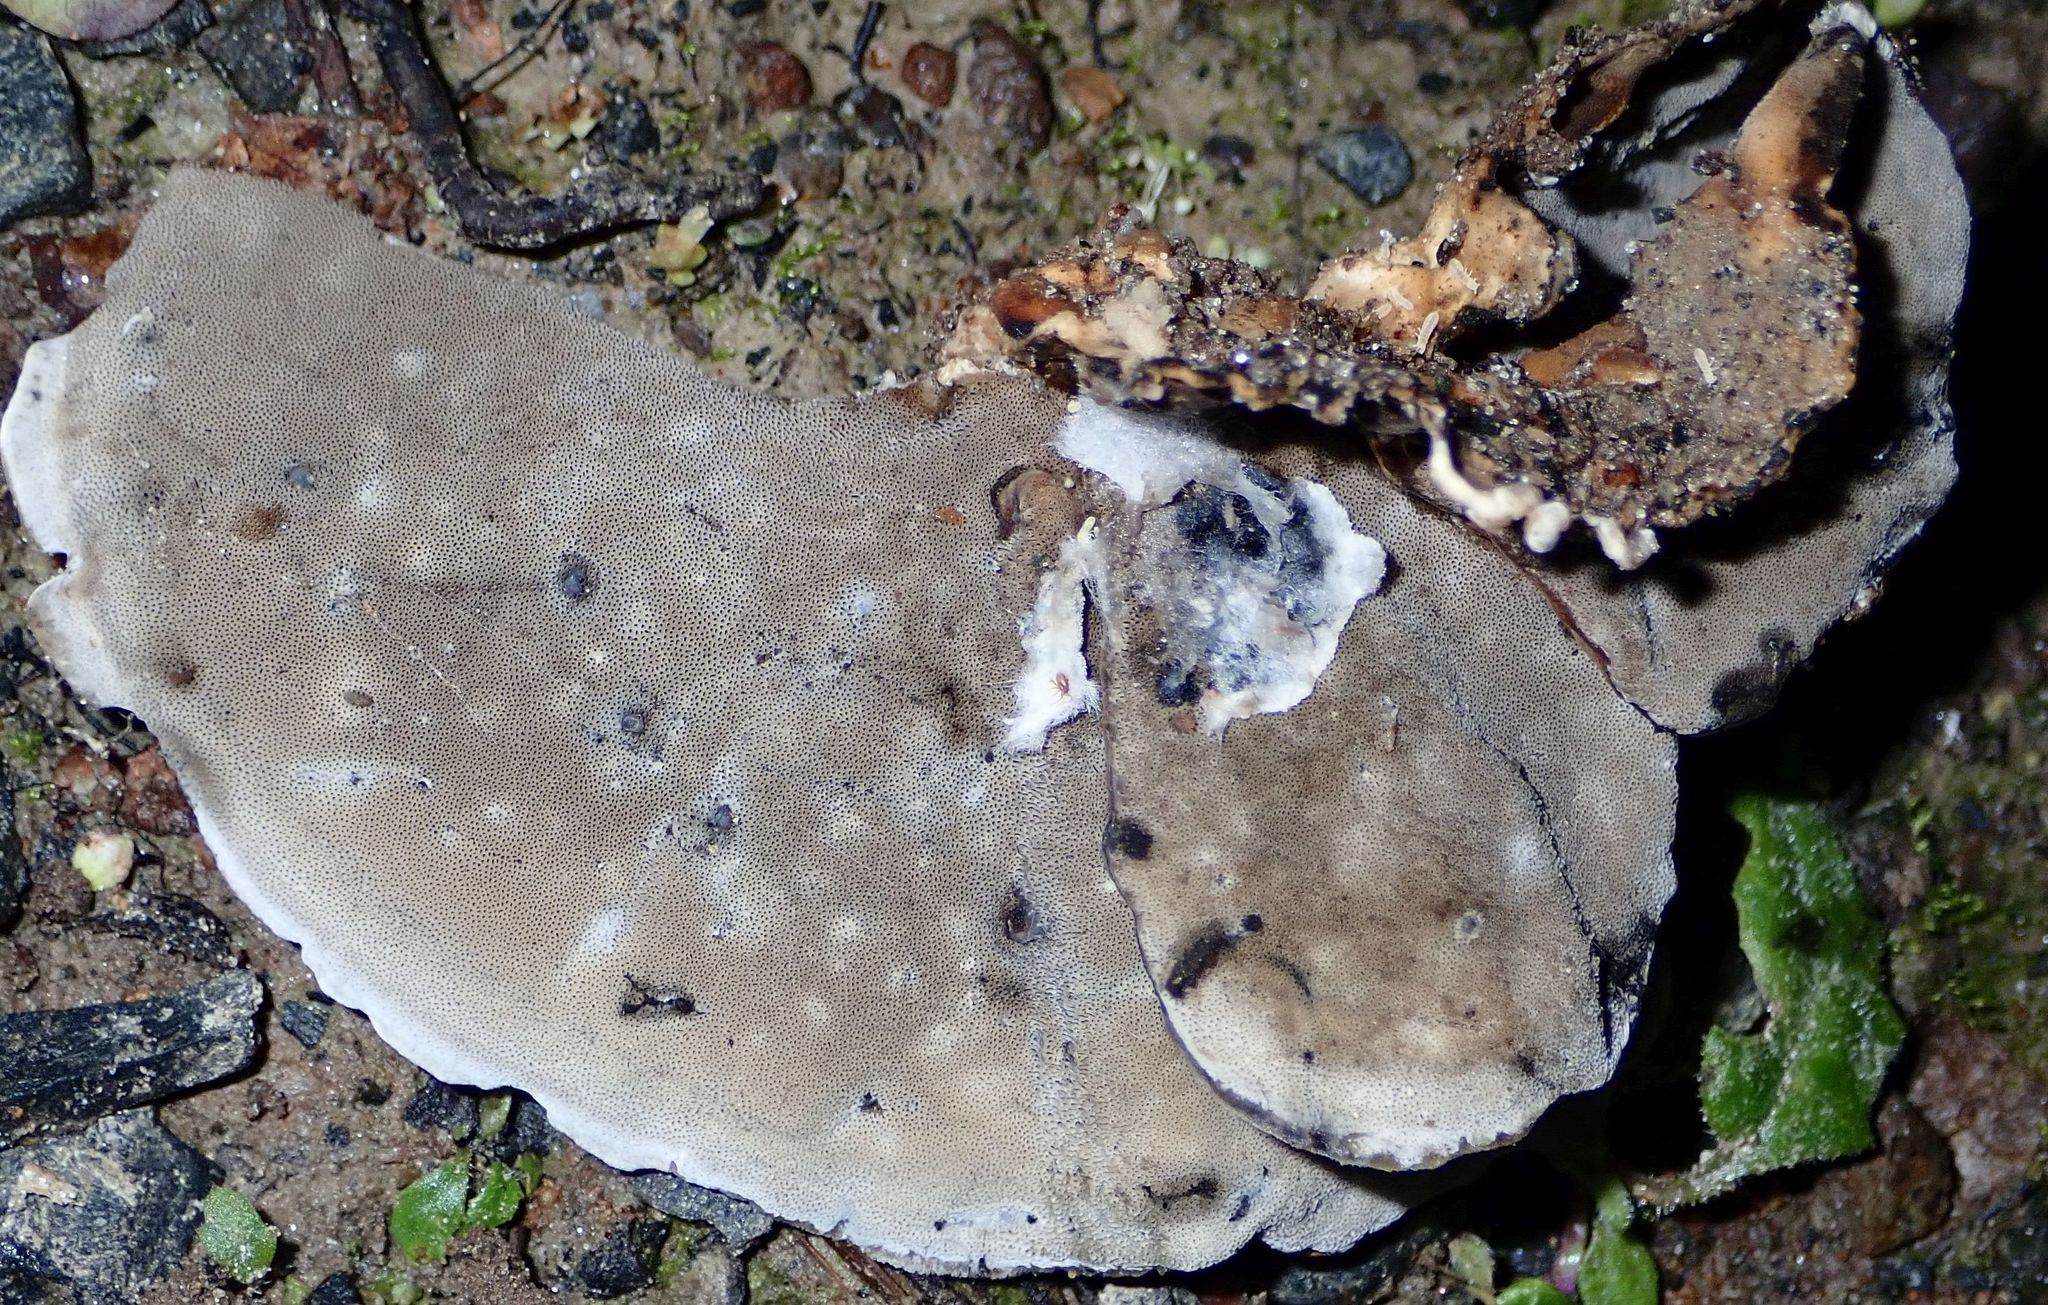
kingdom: Fungi
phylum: Basidiomycota
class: Agaricomycetes
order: Polyporales
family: Phanerochaetaceae
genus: Bjerkandera
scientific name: Bjerkandera adusta
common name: Smoky bracket
